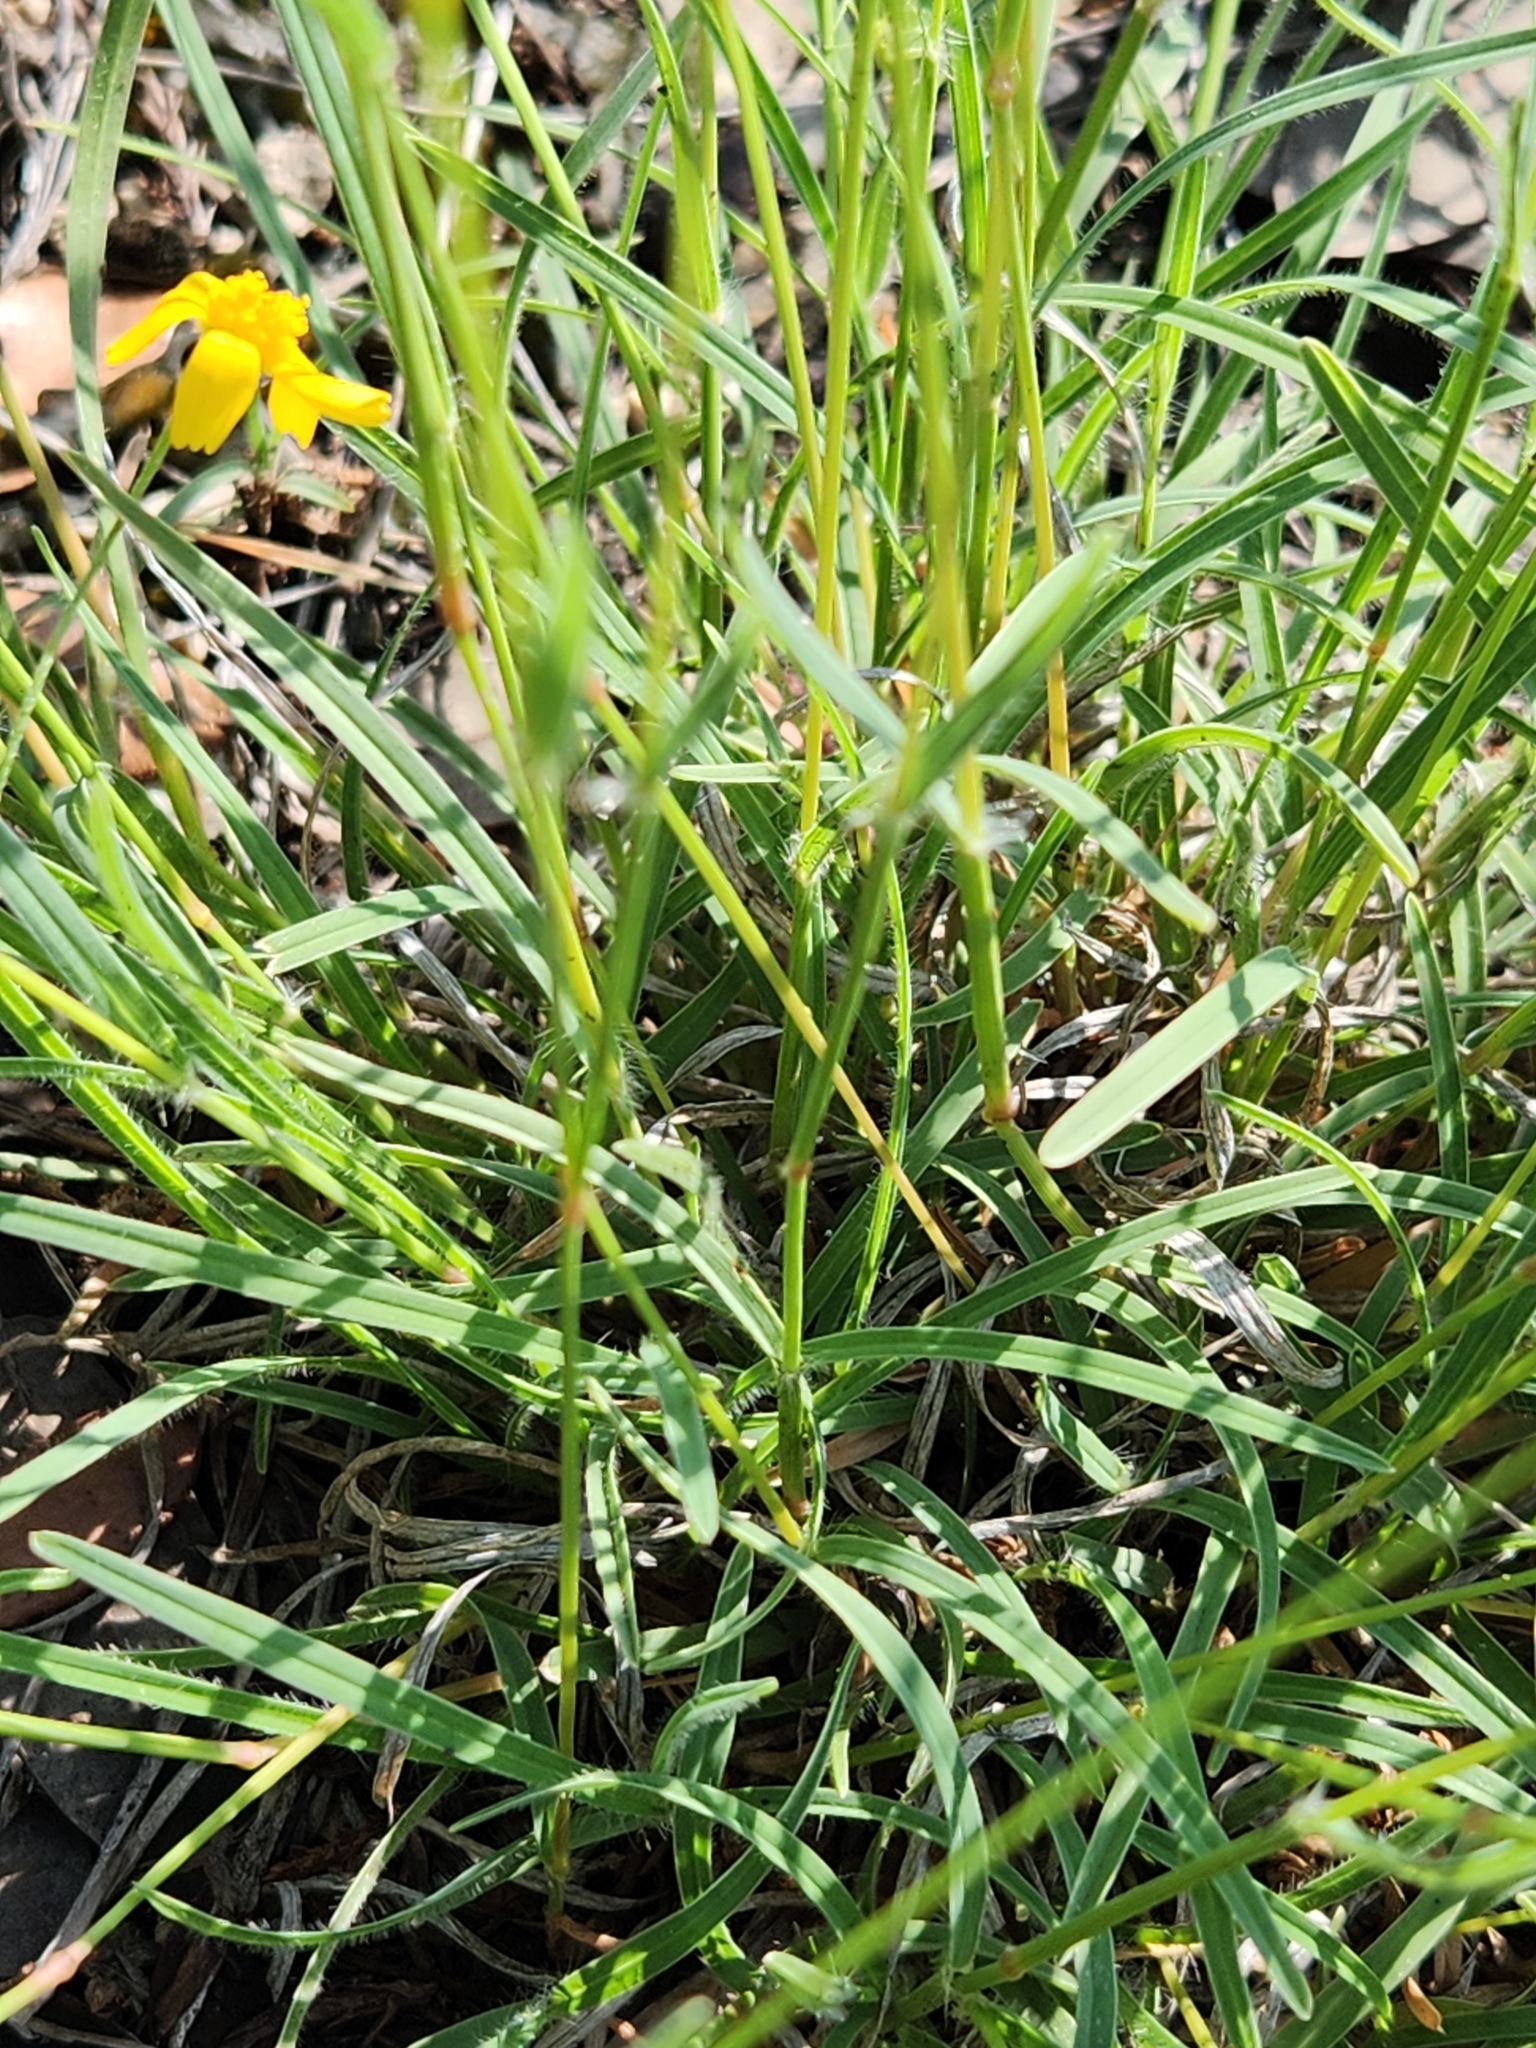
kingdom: Plantae
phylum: Tracheophyta
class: Liliopsida
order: Poales
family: Poaceae
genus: Erioneuron
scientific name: Erioneuron pilosum
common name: Hairy woolly grass
